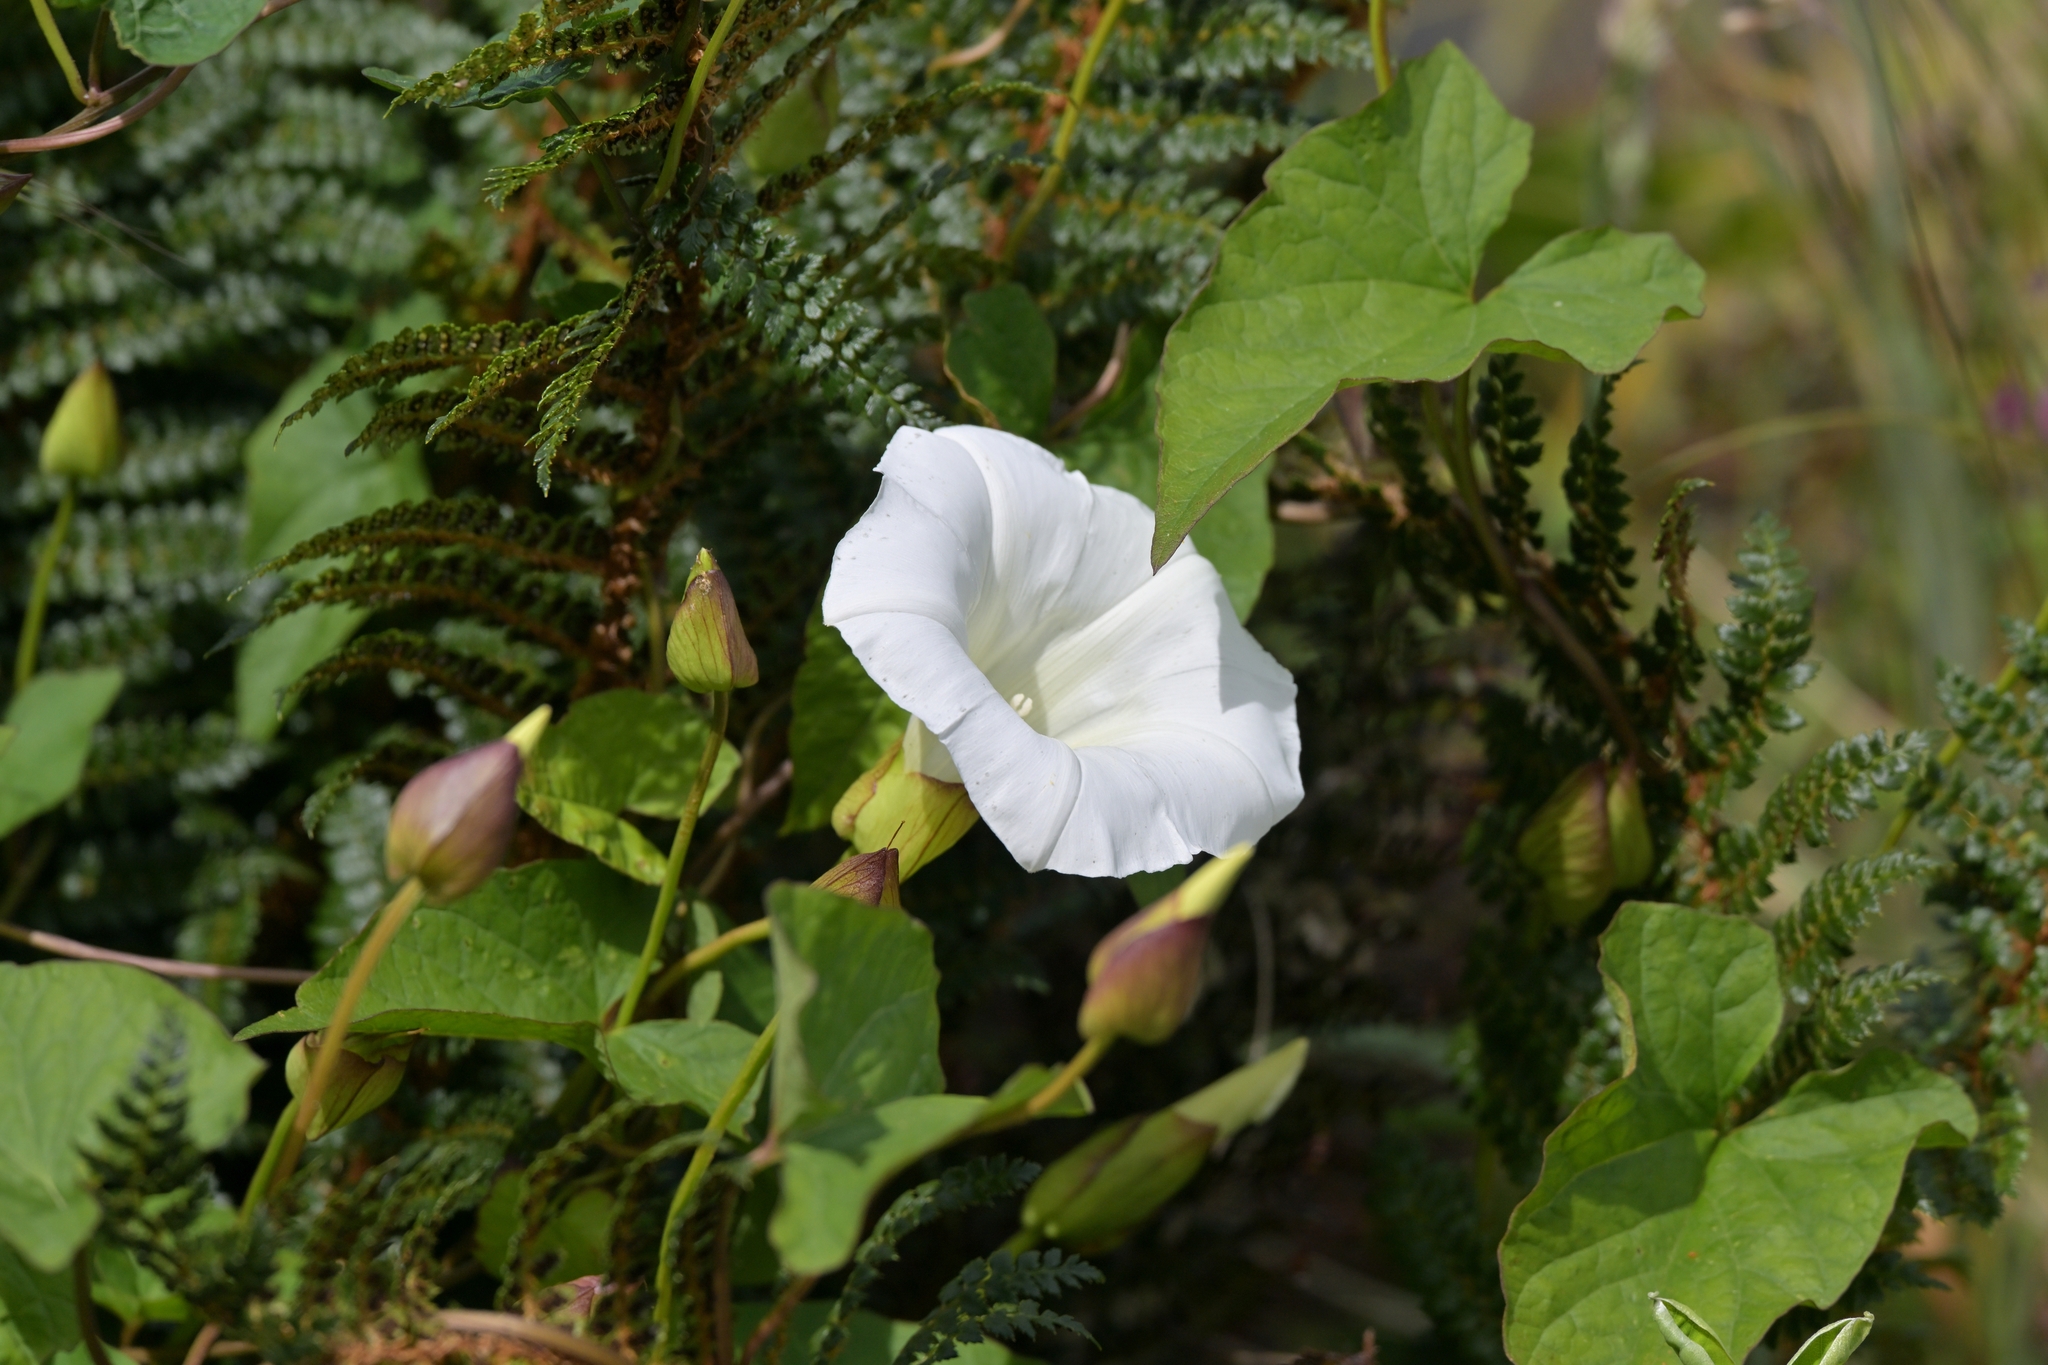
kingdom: Plantae
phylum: Tracheophyta
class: Magnoliopsida
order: Solanales
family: Convolvulaceae
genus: Calystegia
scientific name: Calystegia silvatica
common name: Large bindweed
